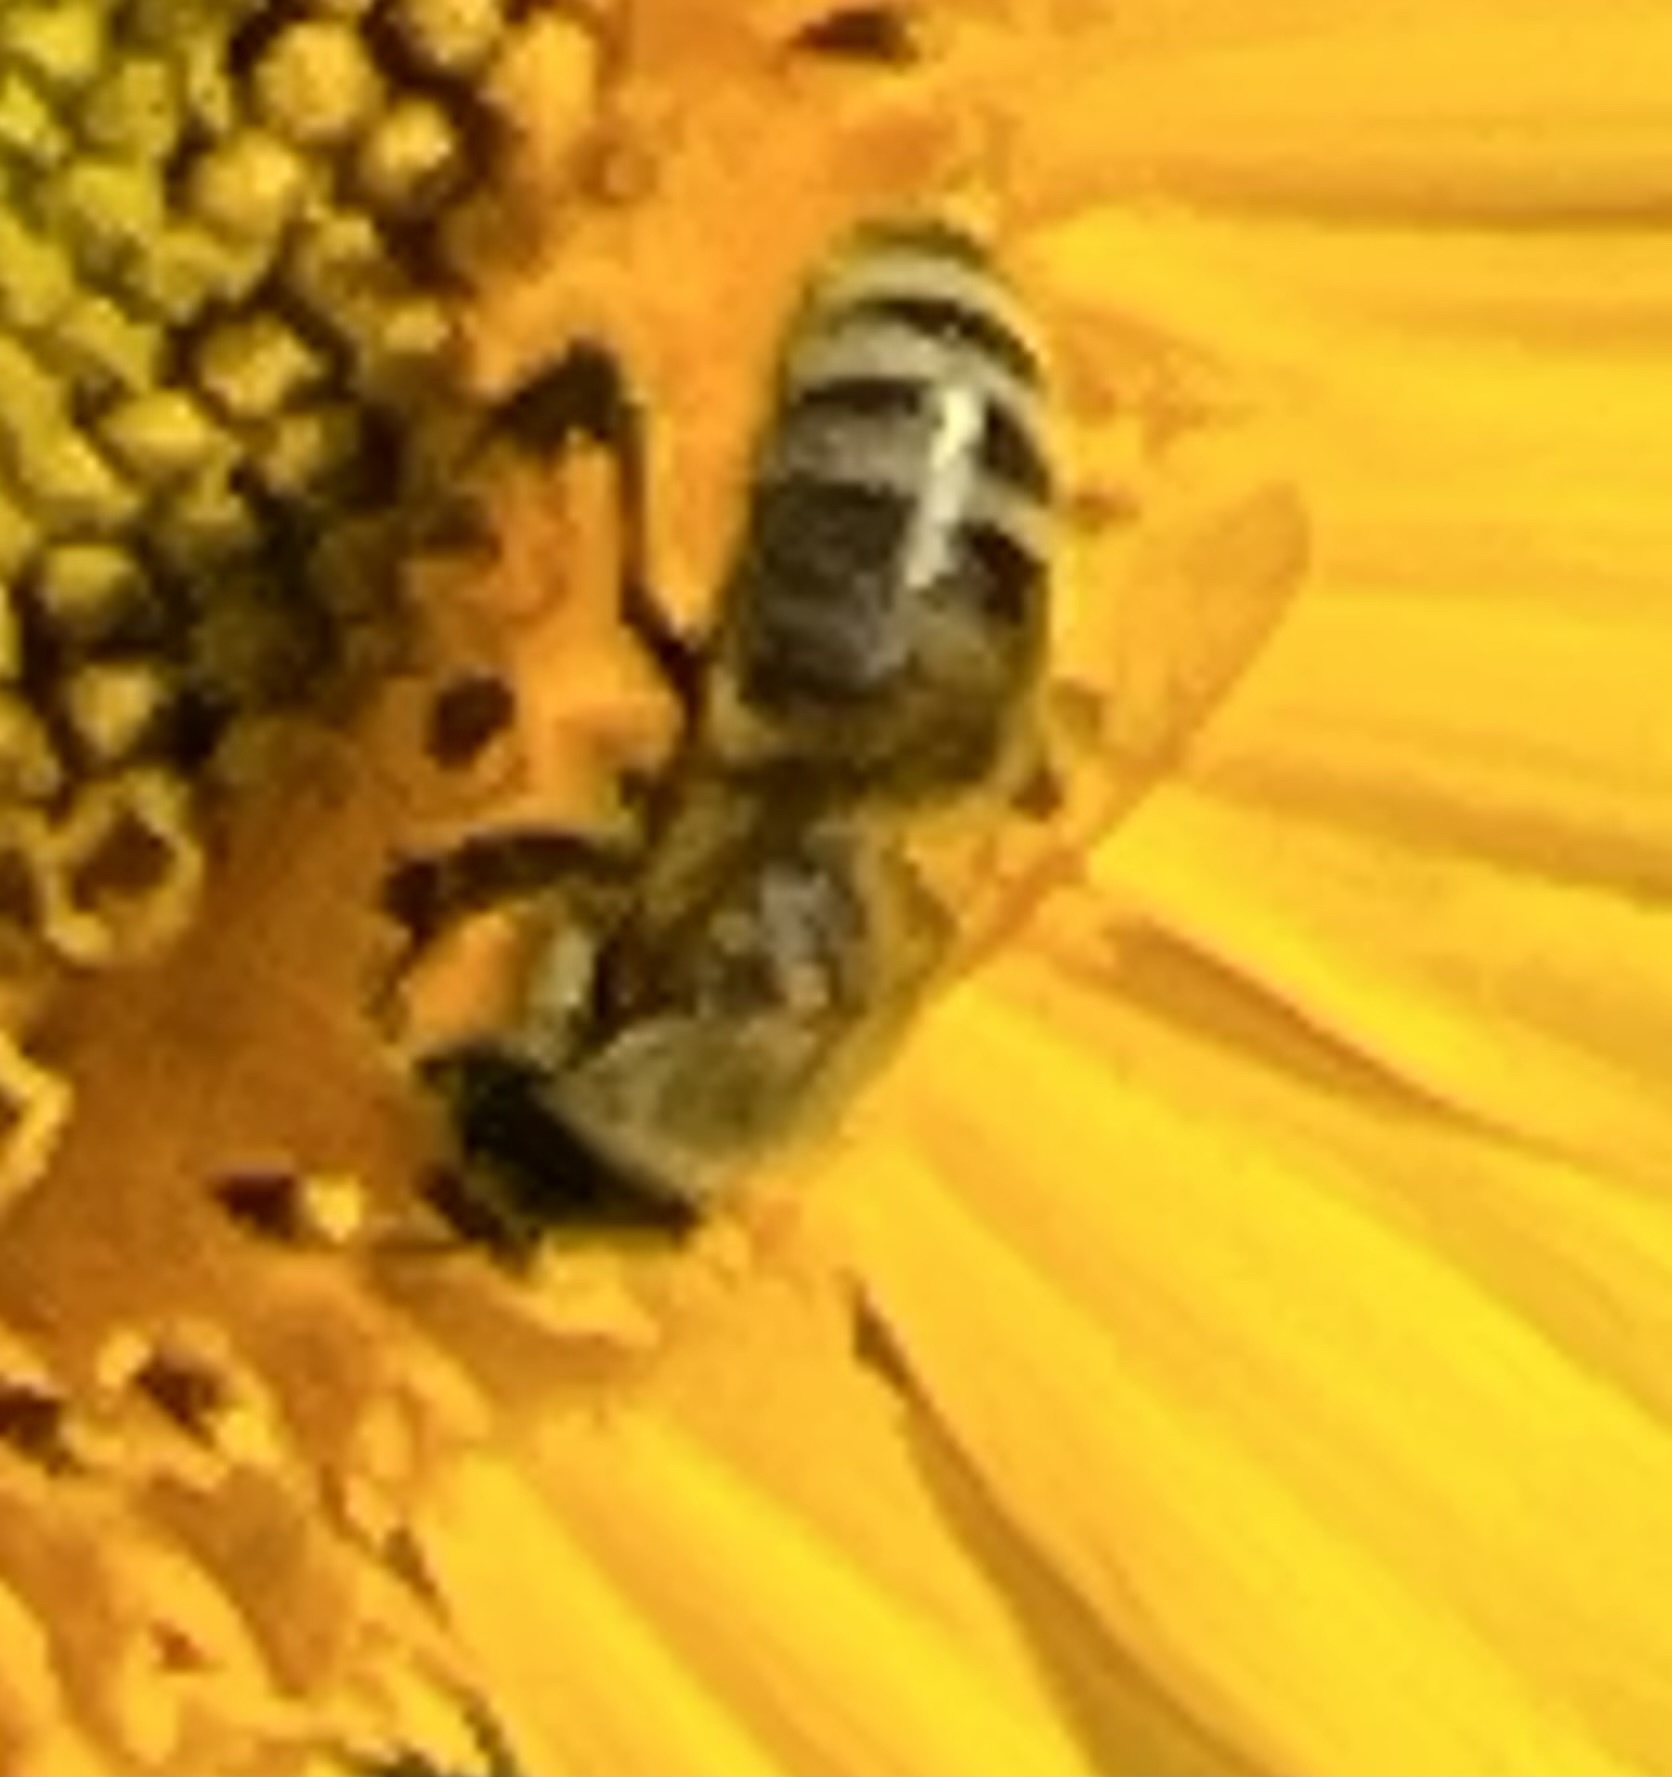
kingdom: Animalia
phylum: Arthropoda
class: Insecta
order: Hymenoptera
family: Apidae
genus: Apis
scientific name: Apis mellifera
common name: Honey bee
